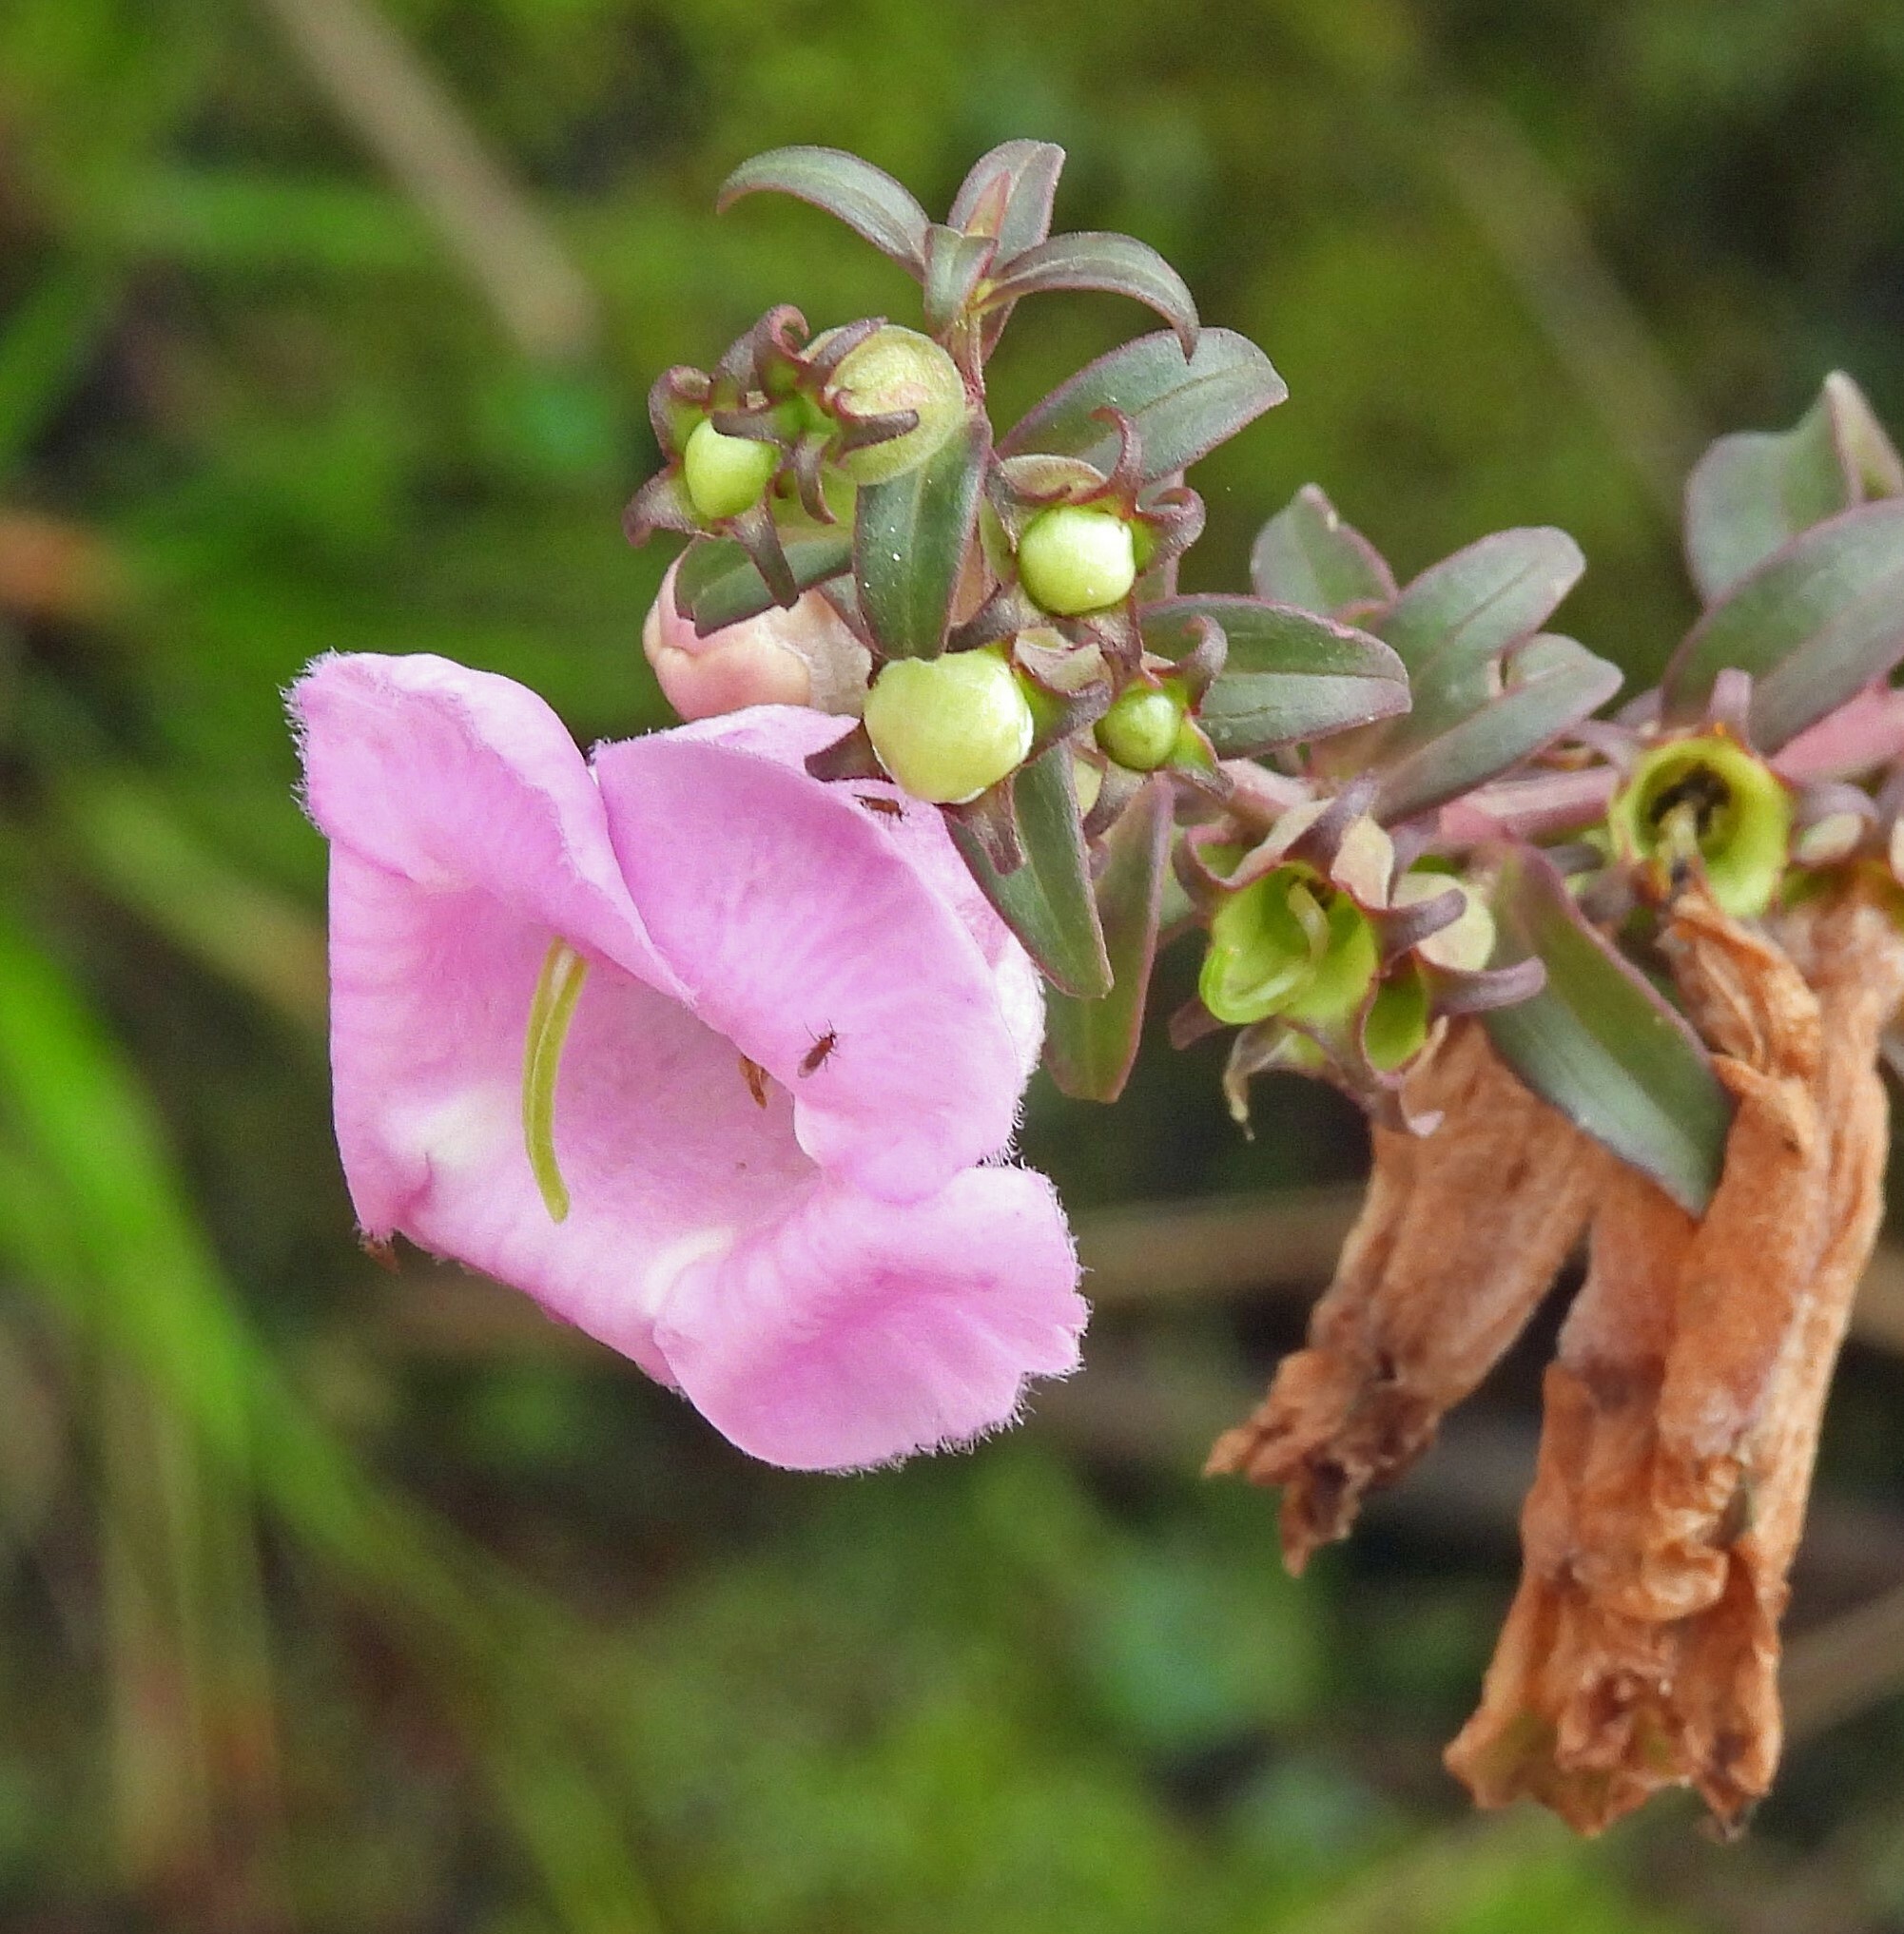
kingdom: Plantae
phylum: Tracheophyta
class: Magnoliopsida
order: Lamiales
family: Orobanchaceae
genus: Agalinis
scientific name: Agalinis genistifolia
